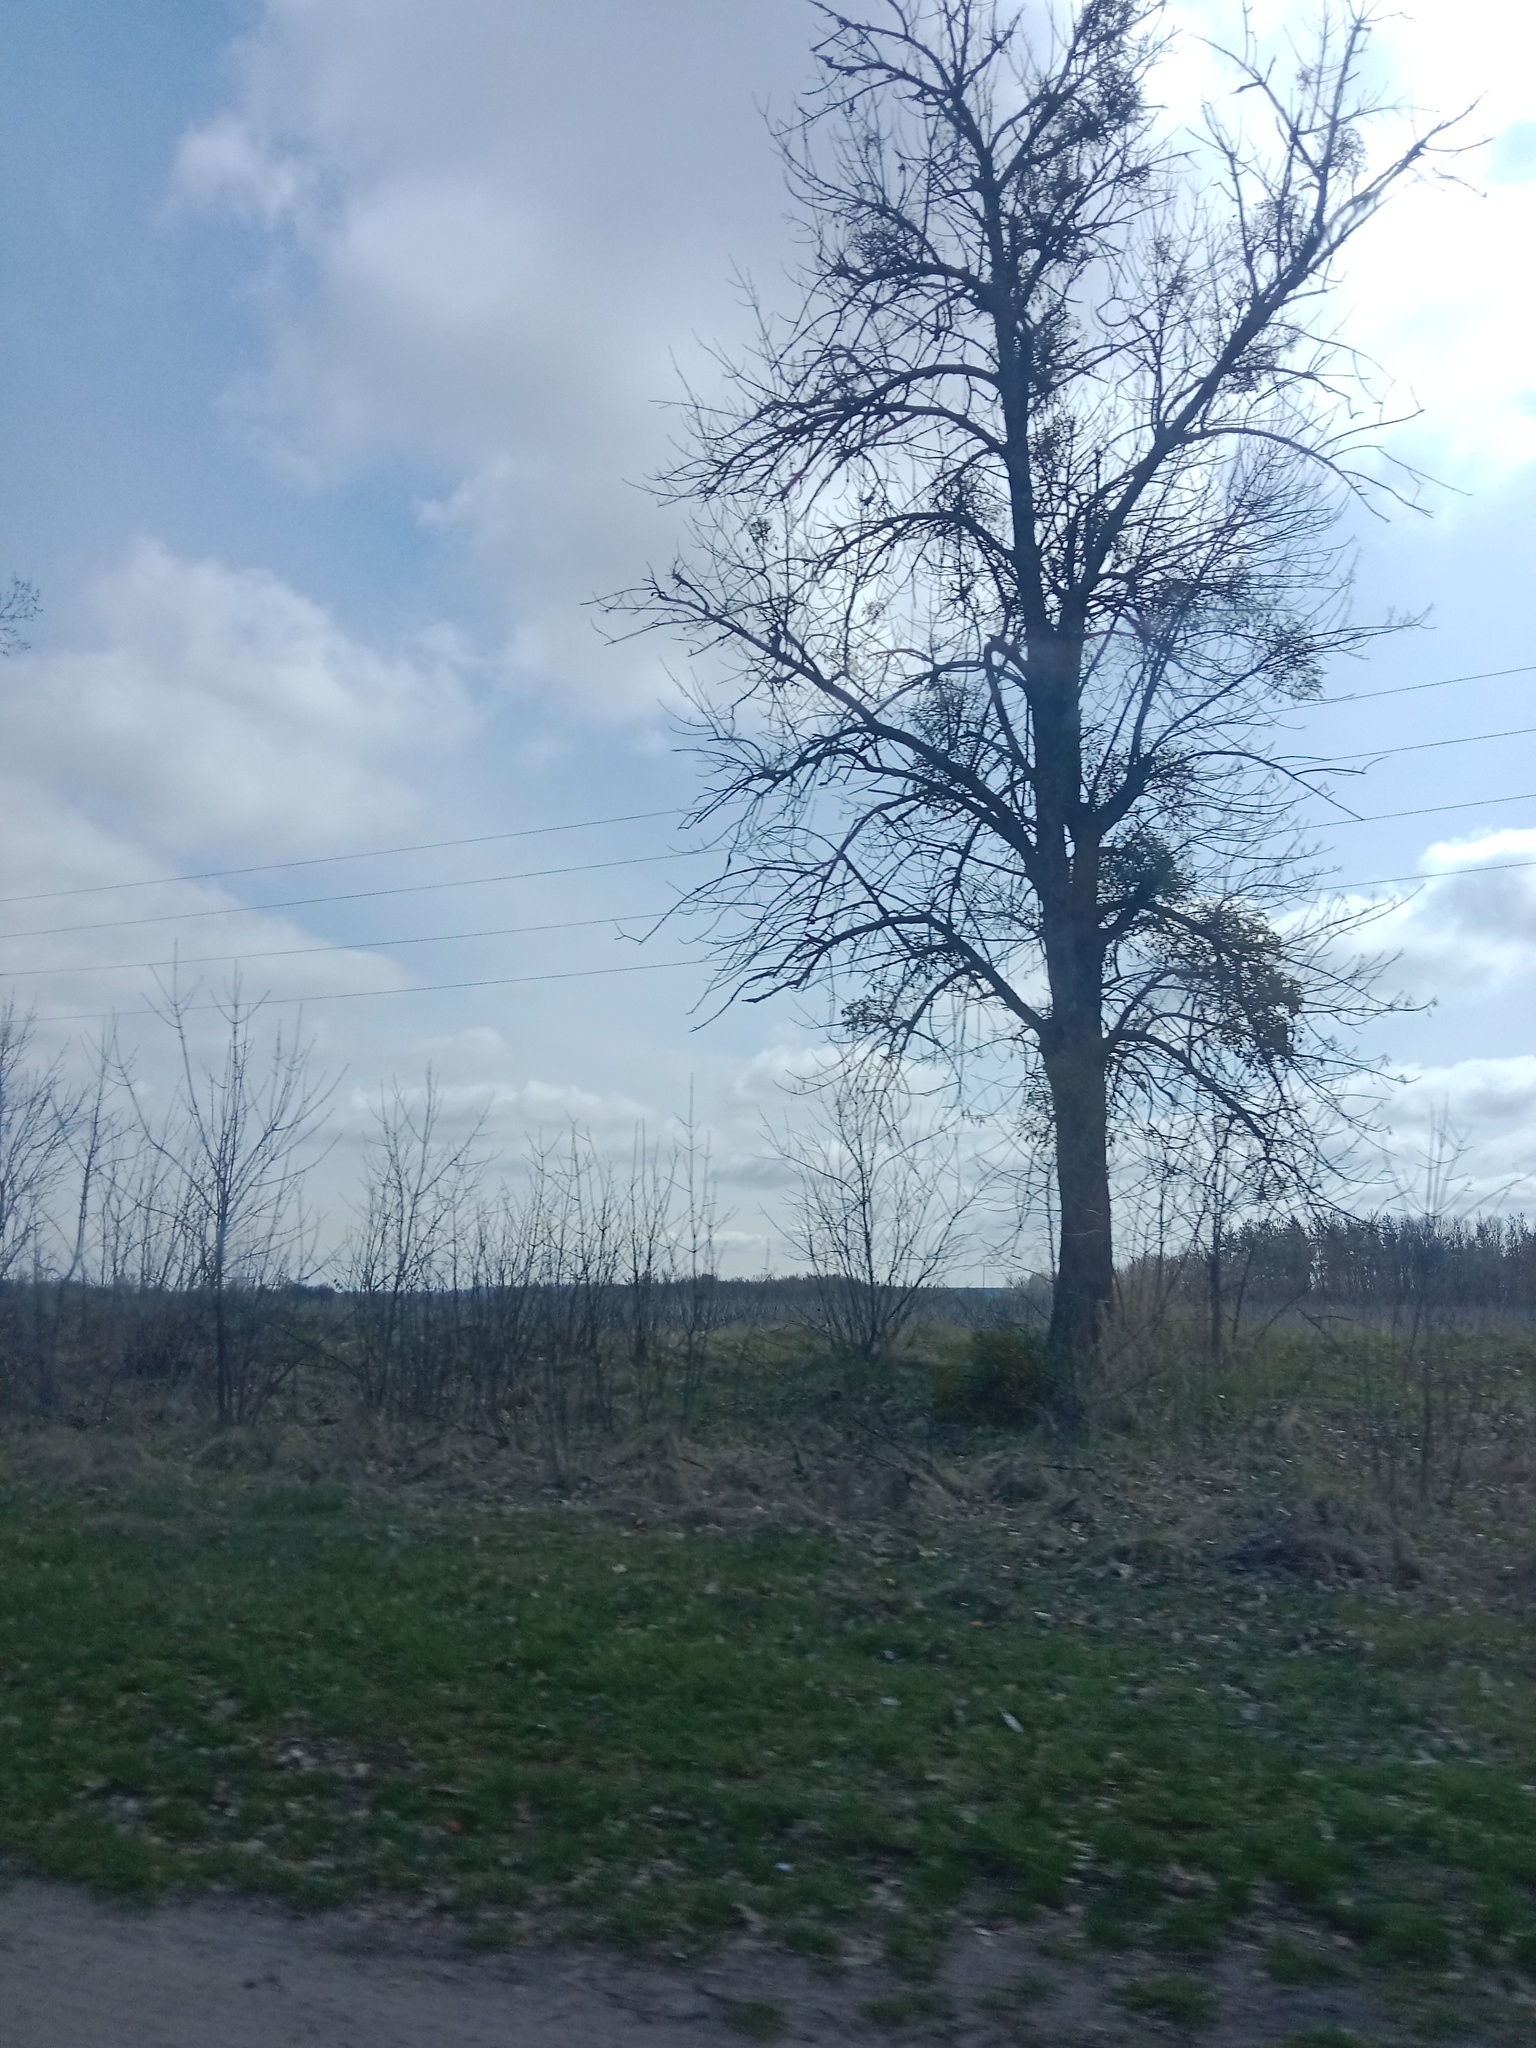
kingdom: Plantae
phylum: Tracheophyta
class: Magnoliopsida
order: Santalales
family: Viscaceae
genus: Viscum
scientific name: Viscum album
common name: Mistletoe
